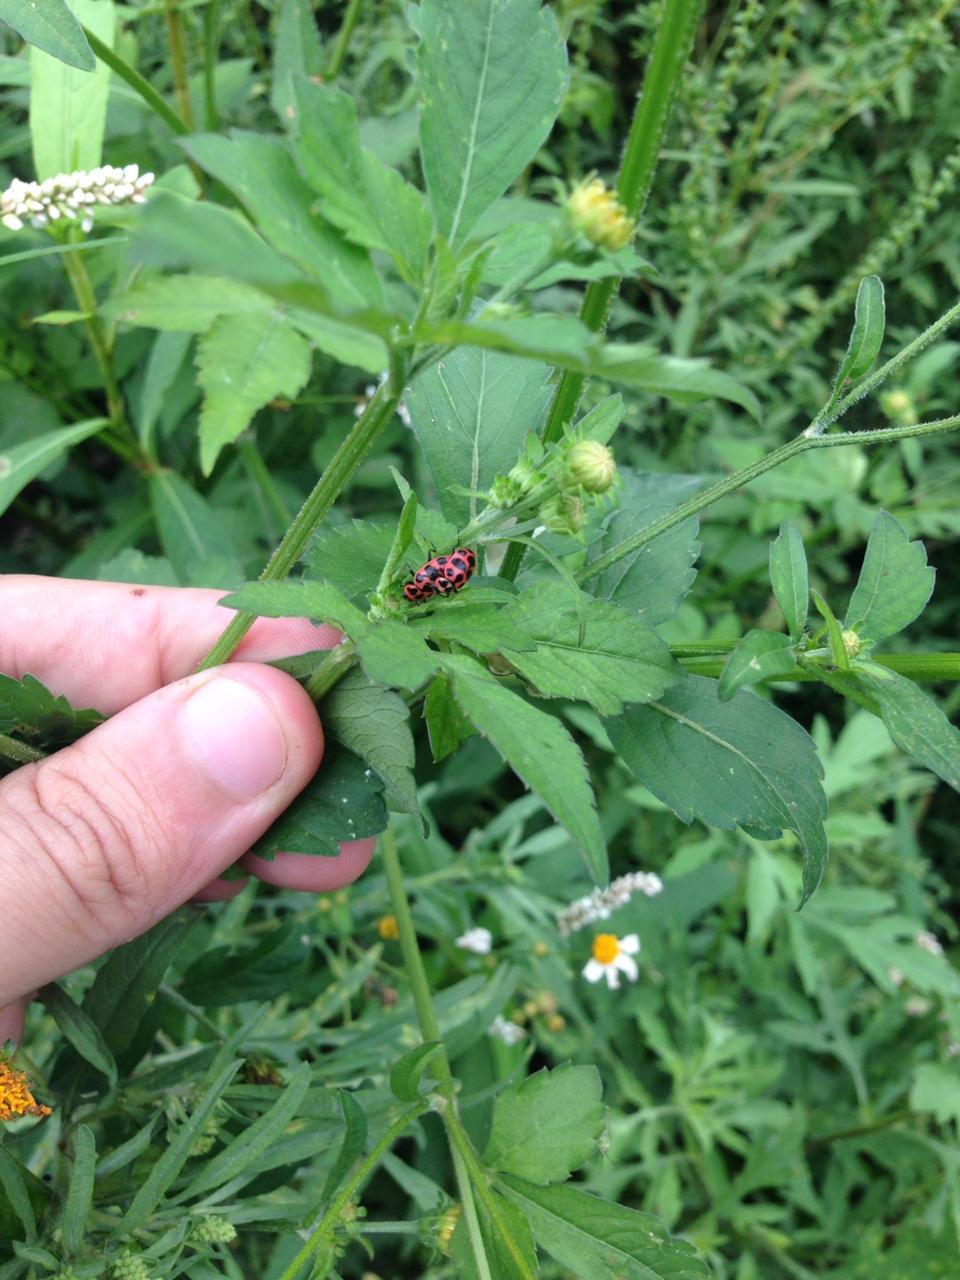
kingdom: Animalia
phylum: Arthropoda
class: Insecta
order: Coleoptera
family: Coccinellidae
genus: Coleomegilla
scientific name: Coleomegilla maculata
